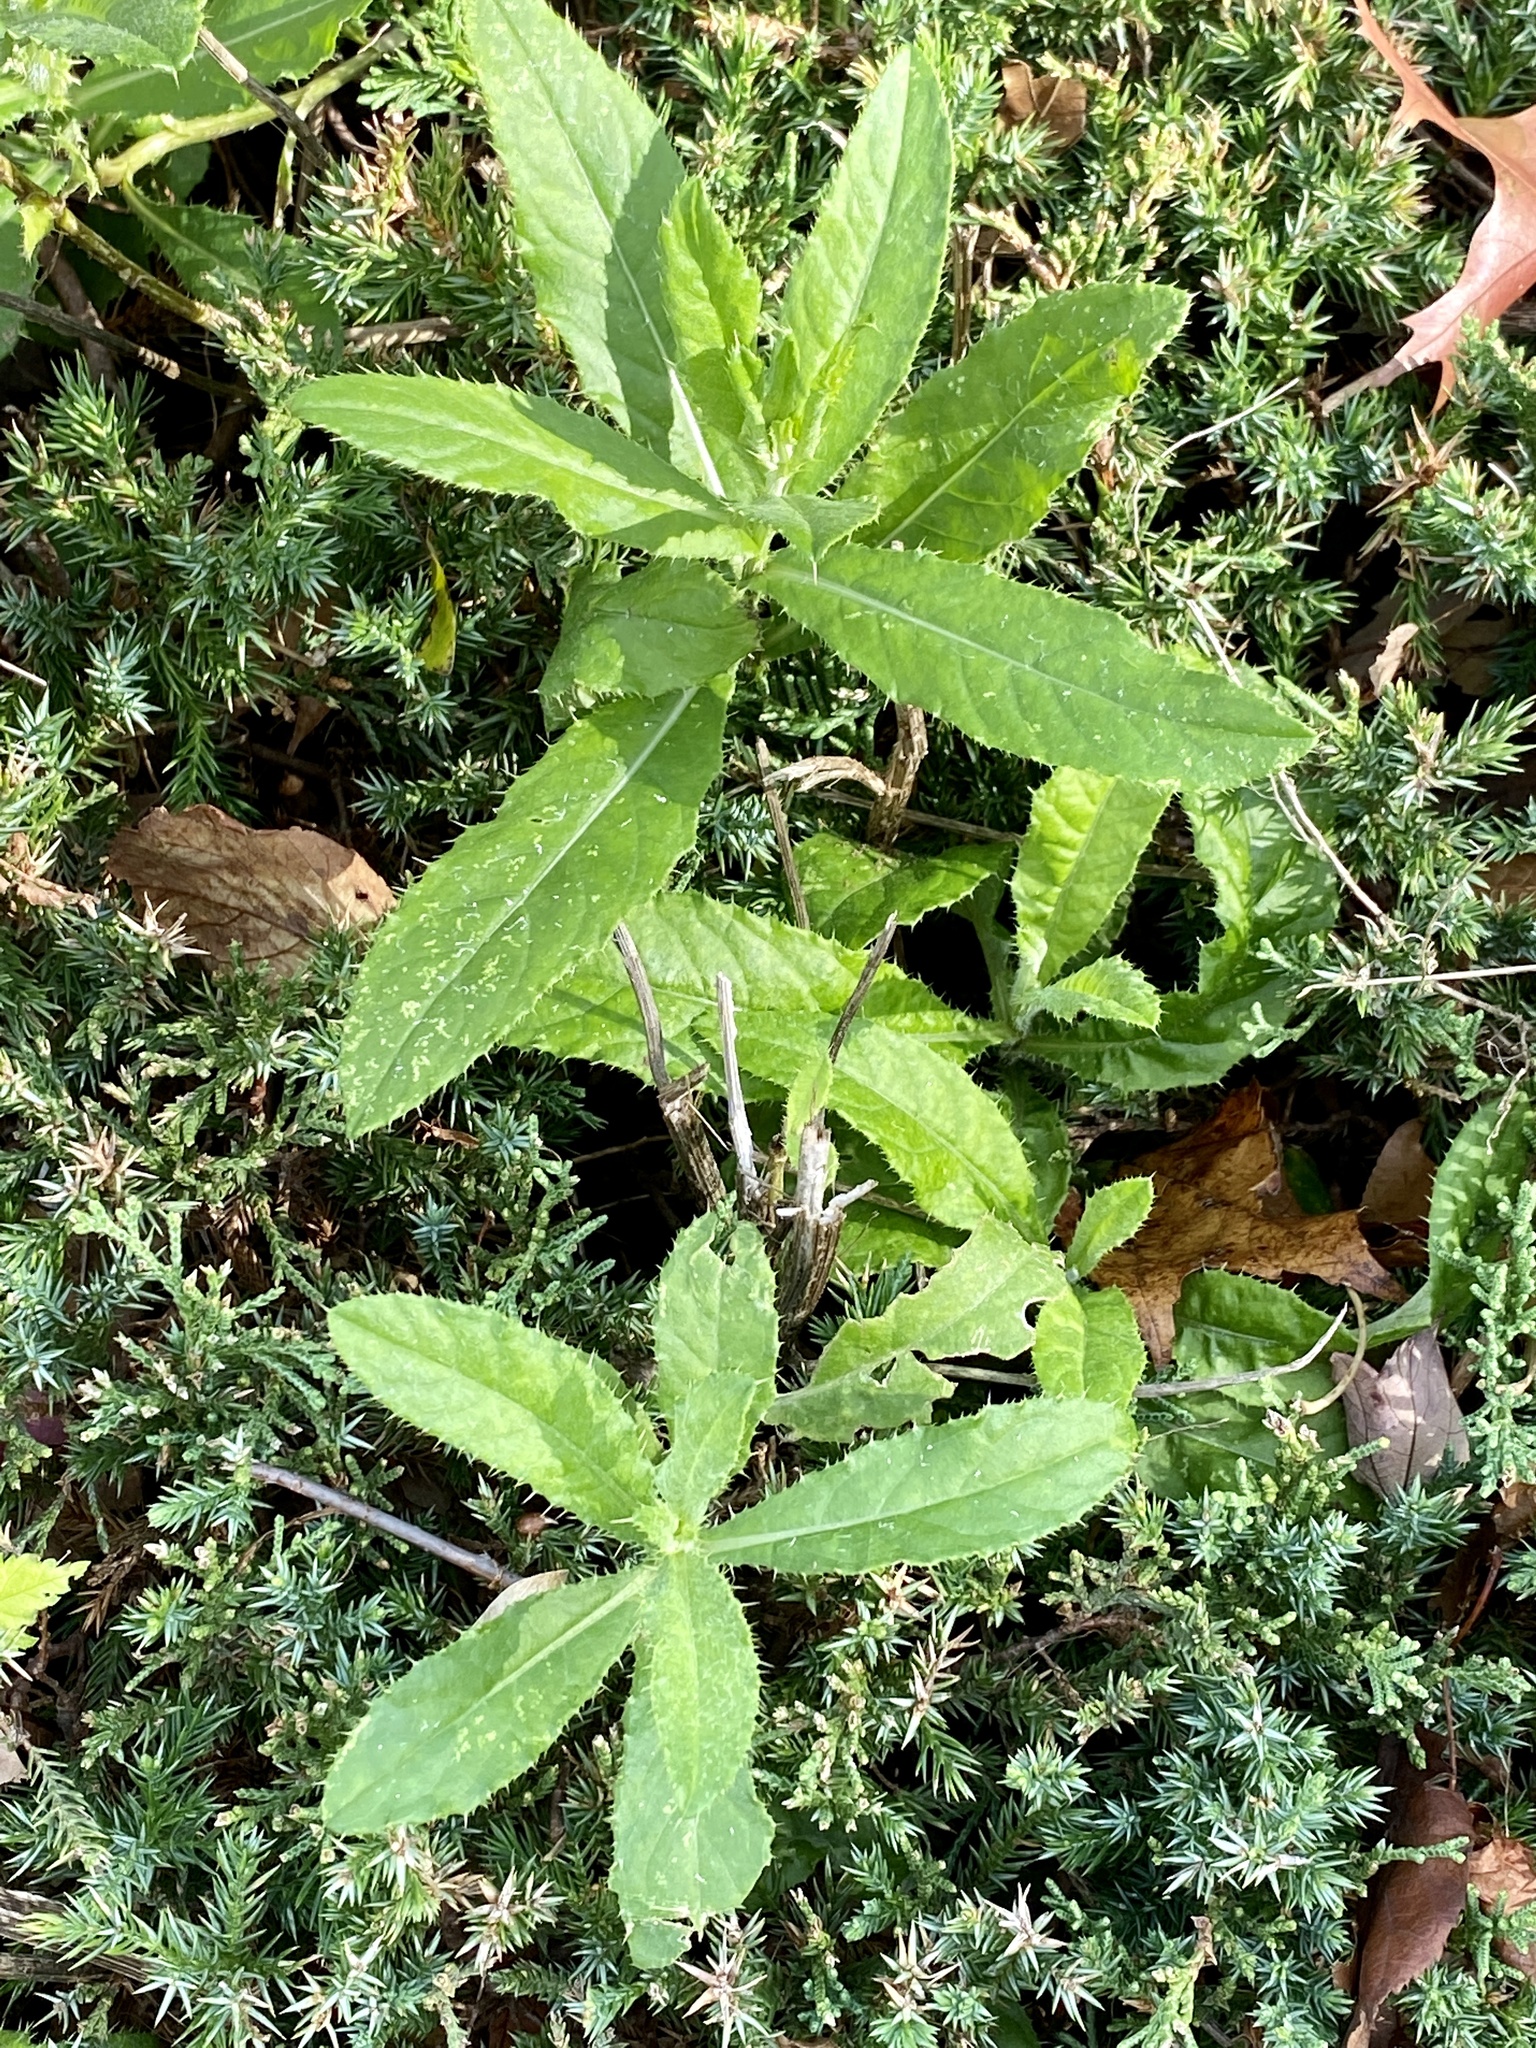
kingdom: Plantae
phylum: Tracheophyta
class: Magnoliopsida
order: Asterales
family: Asteraceae
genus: Cirsium
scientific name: Cirsium arvense
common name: Creeping thistle
